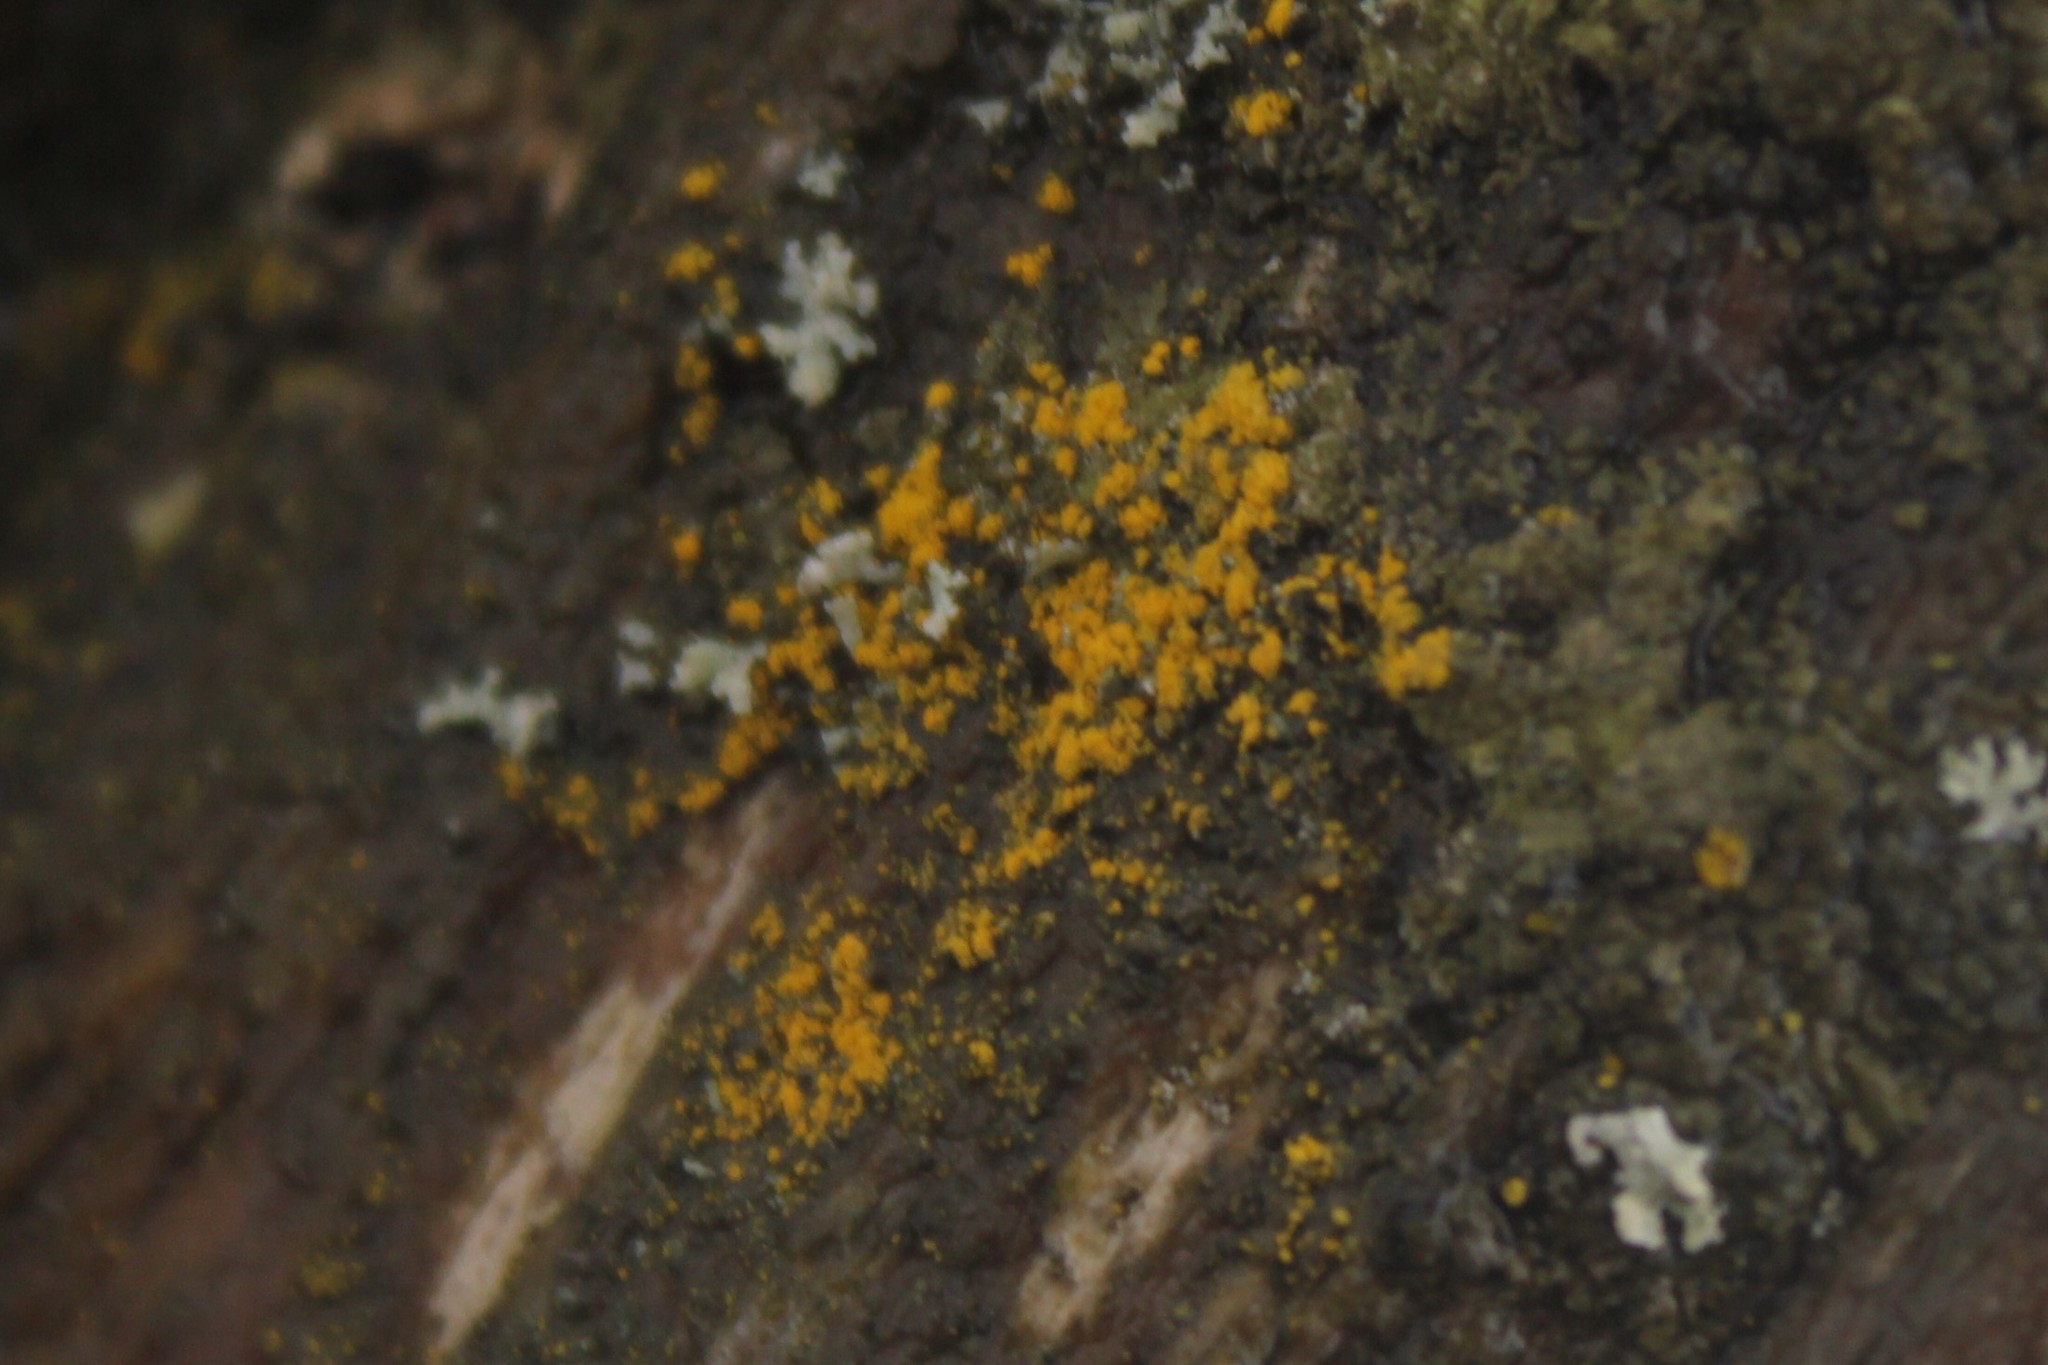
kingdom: Fungi
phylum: Ascomycota
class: Candelariomycetes
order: Candelariales
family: Candelariaceae
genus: Candelariella
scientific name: Candelariella efflorescens
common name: Powdery goldspeck
